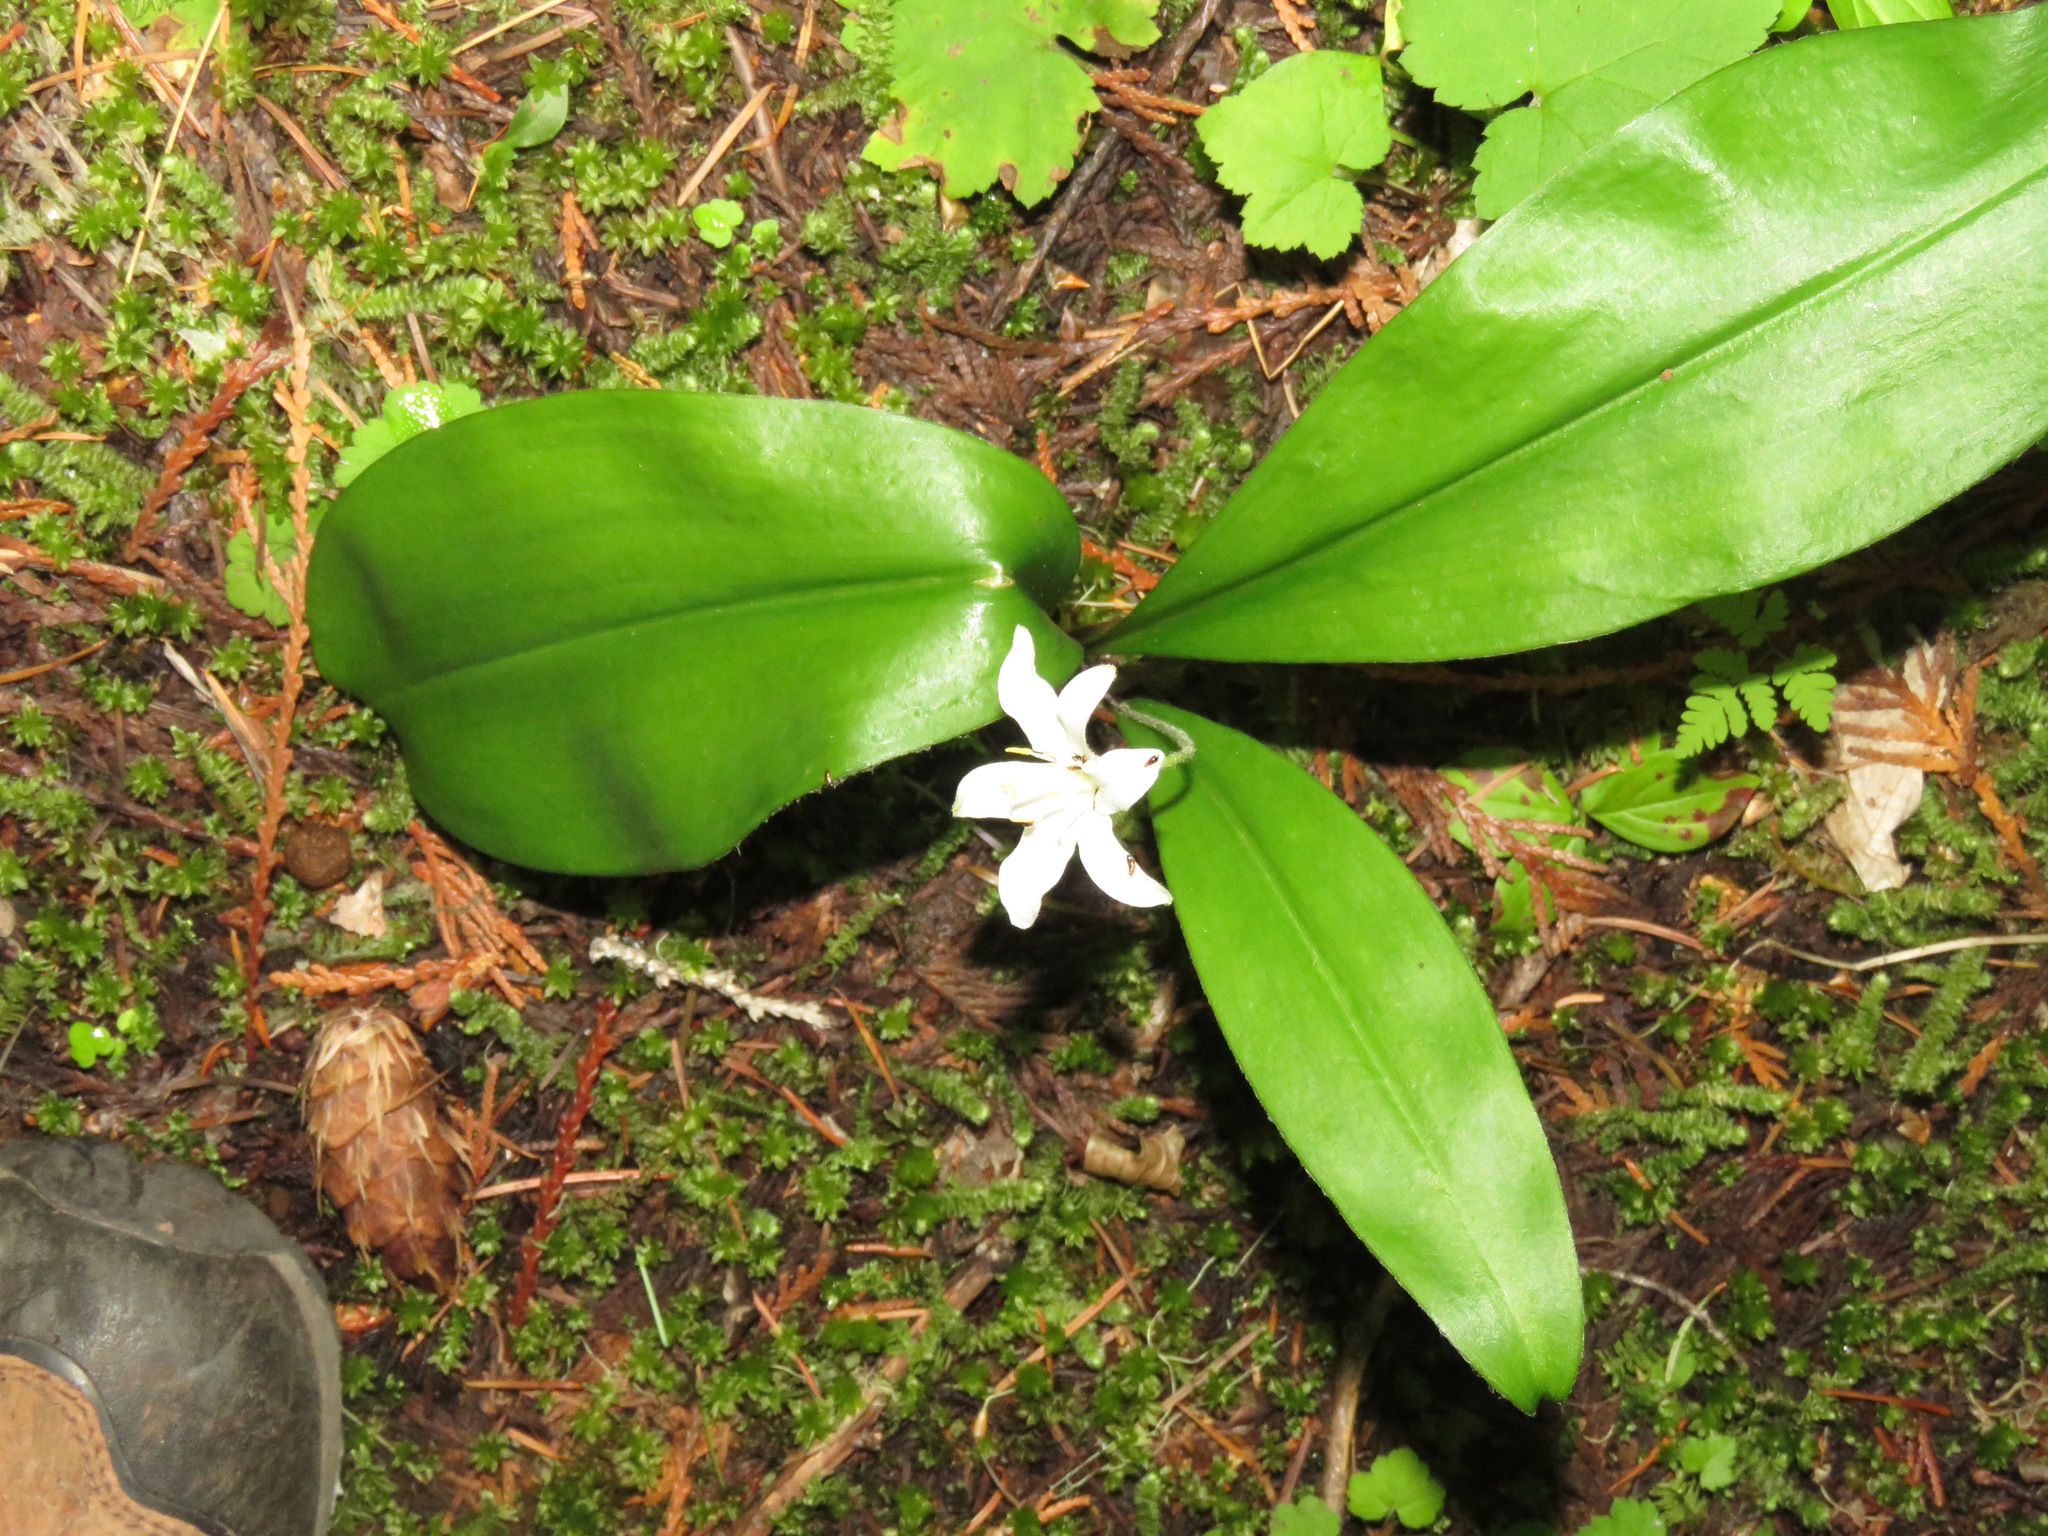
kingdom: Plantae
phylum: Tracheophyta
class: Liliopsida
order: Liliales
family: Liliaceae
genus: Clintonia
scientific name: Clintonia uniflora
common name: Queen's cup
